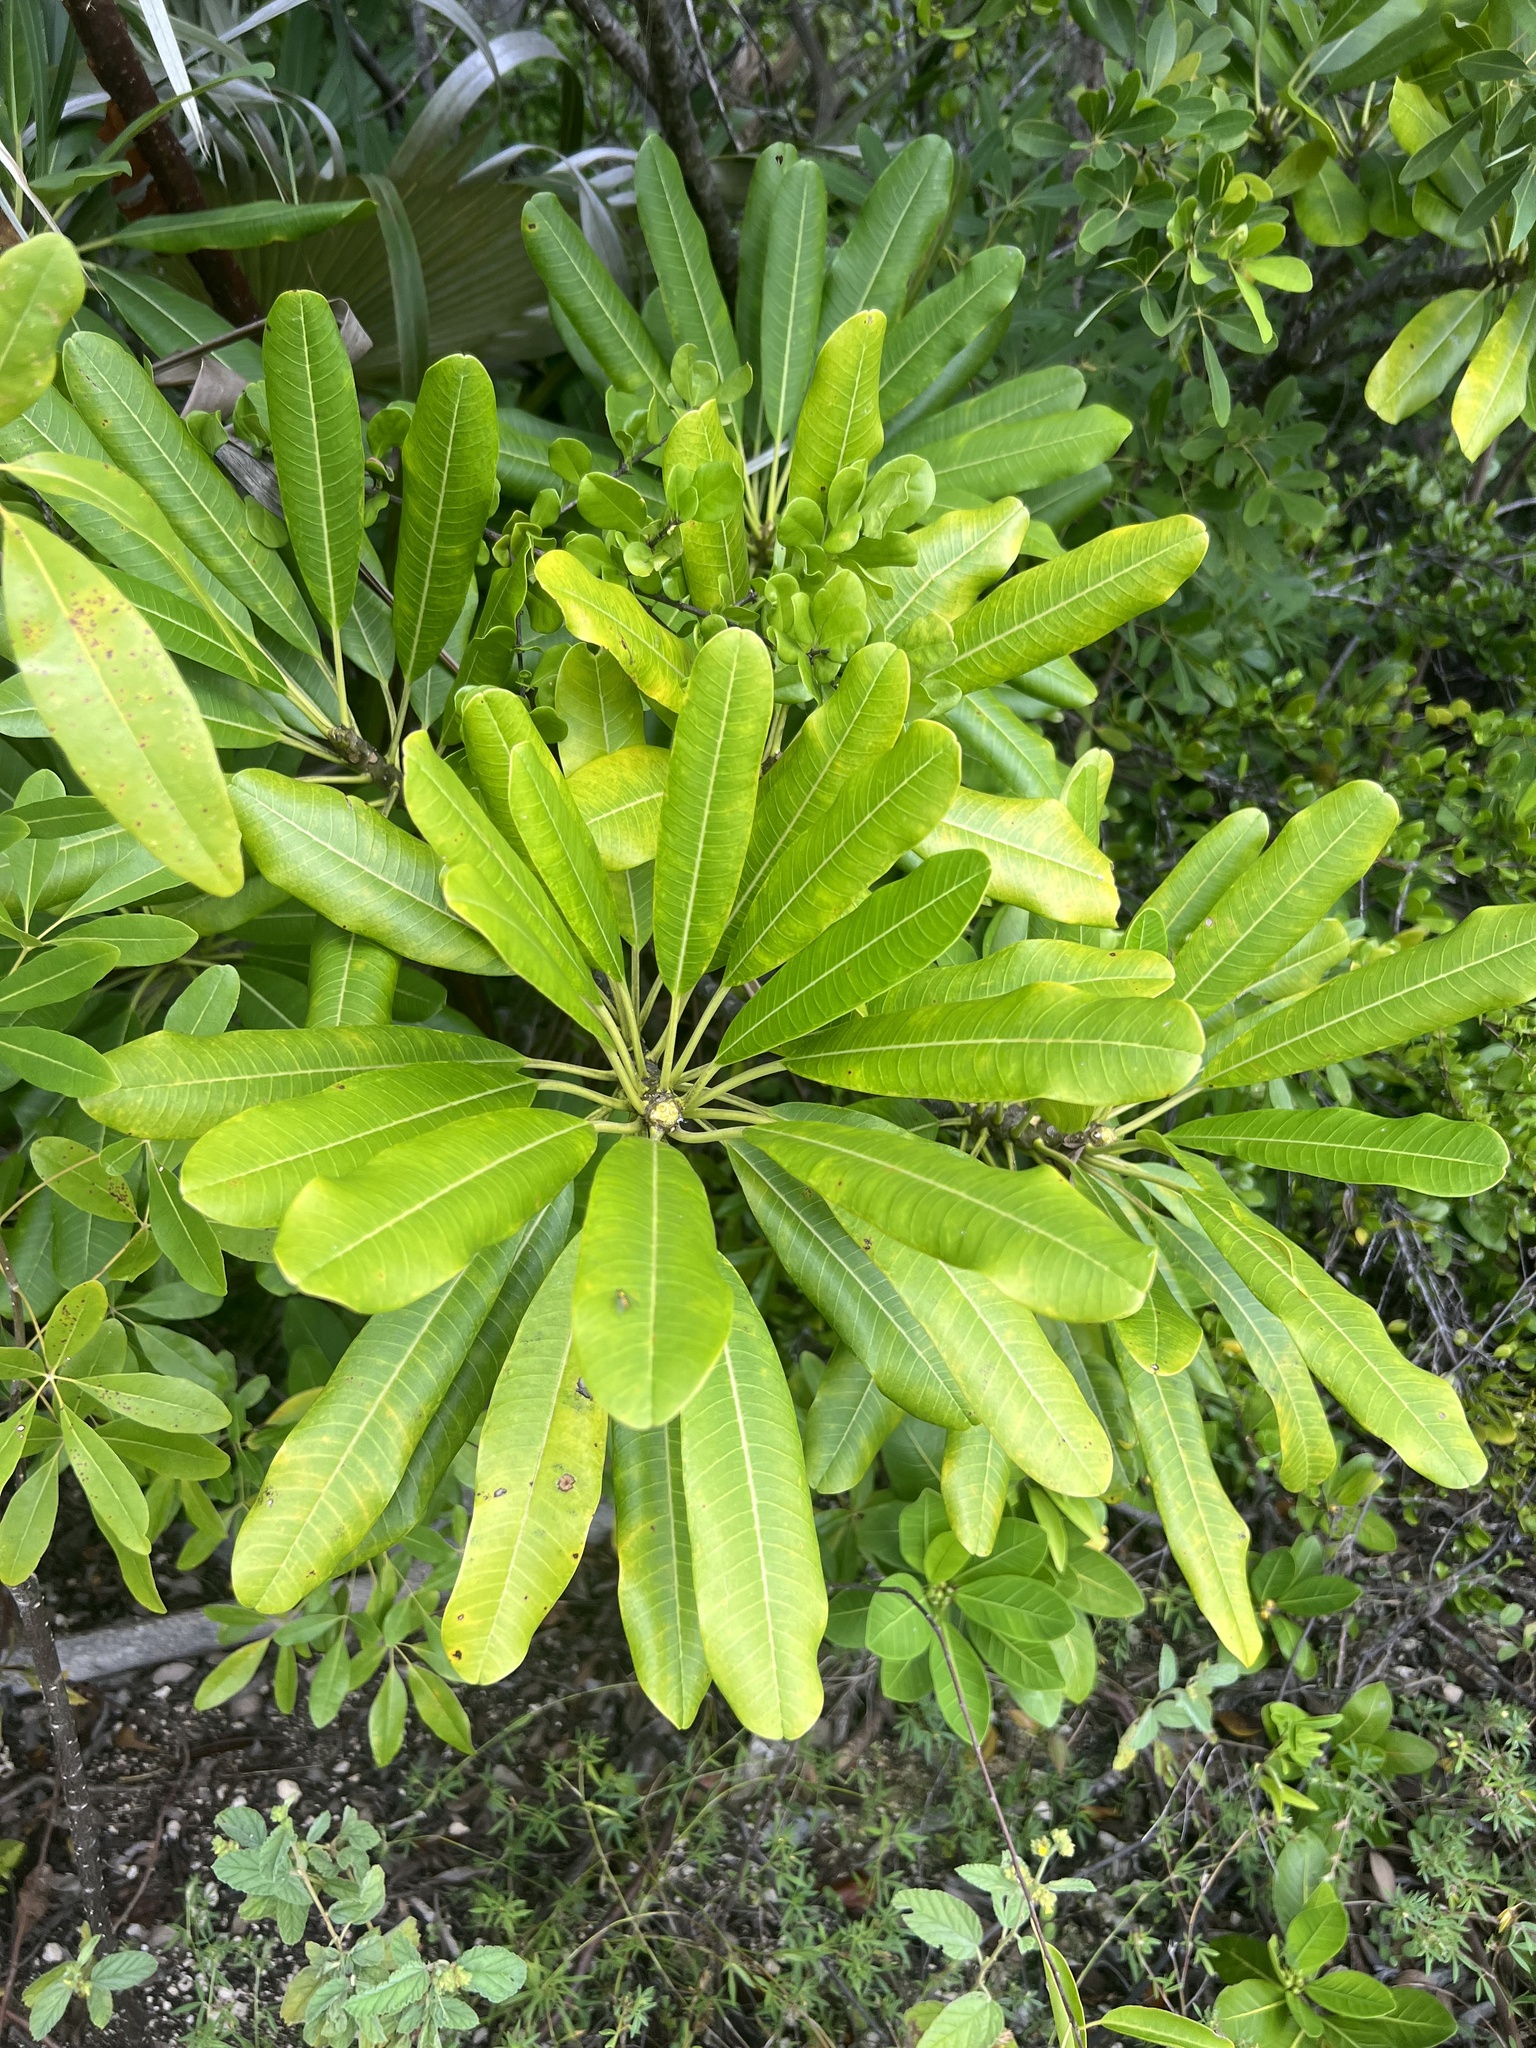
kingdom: Plantae
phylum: Tracheophyta
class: Magnoliopsida
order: Gentianales
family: Apocynaceae
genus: Plumeria
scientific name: Plumeria obtusa
